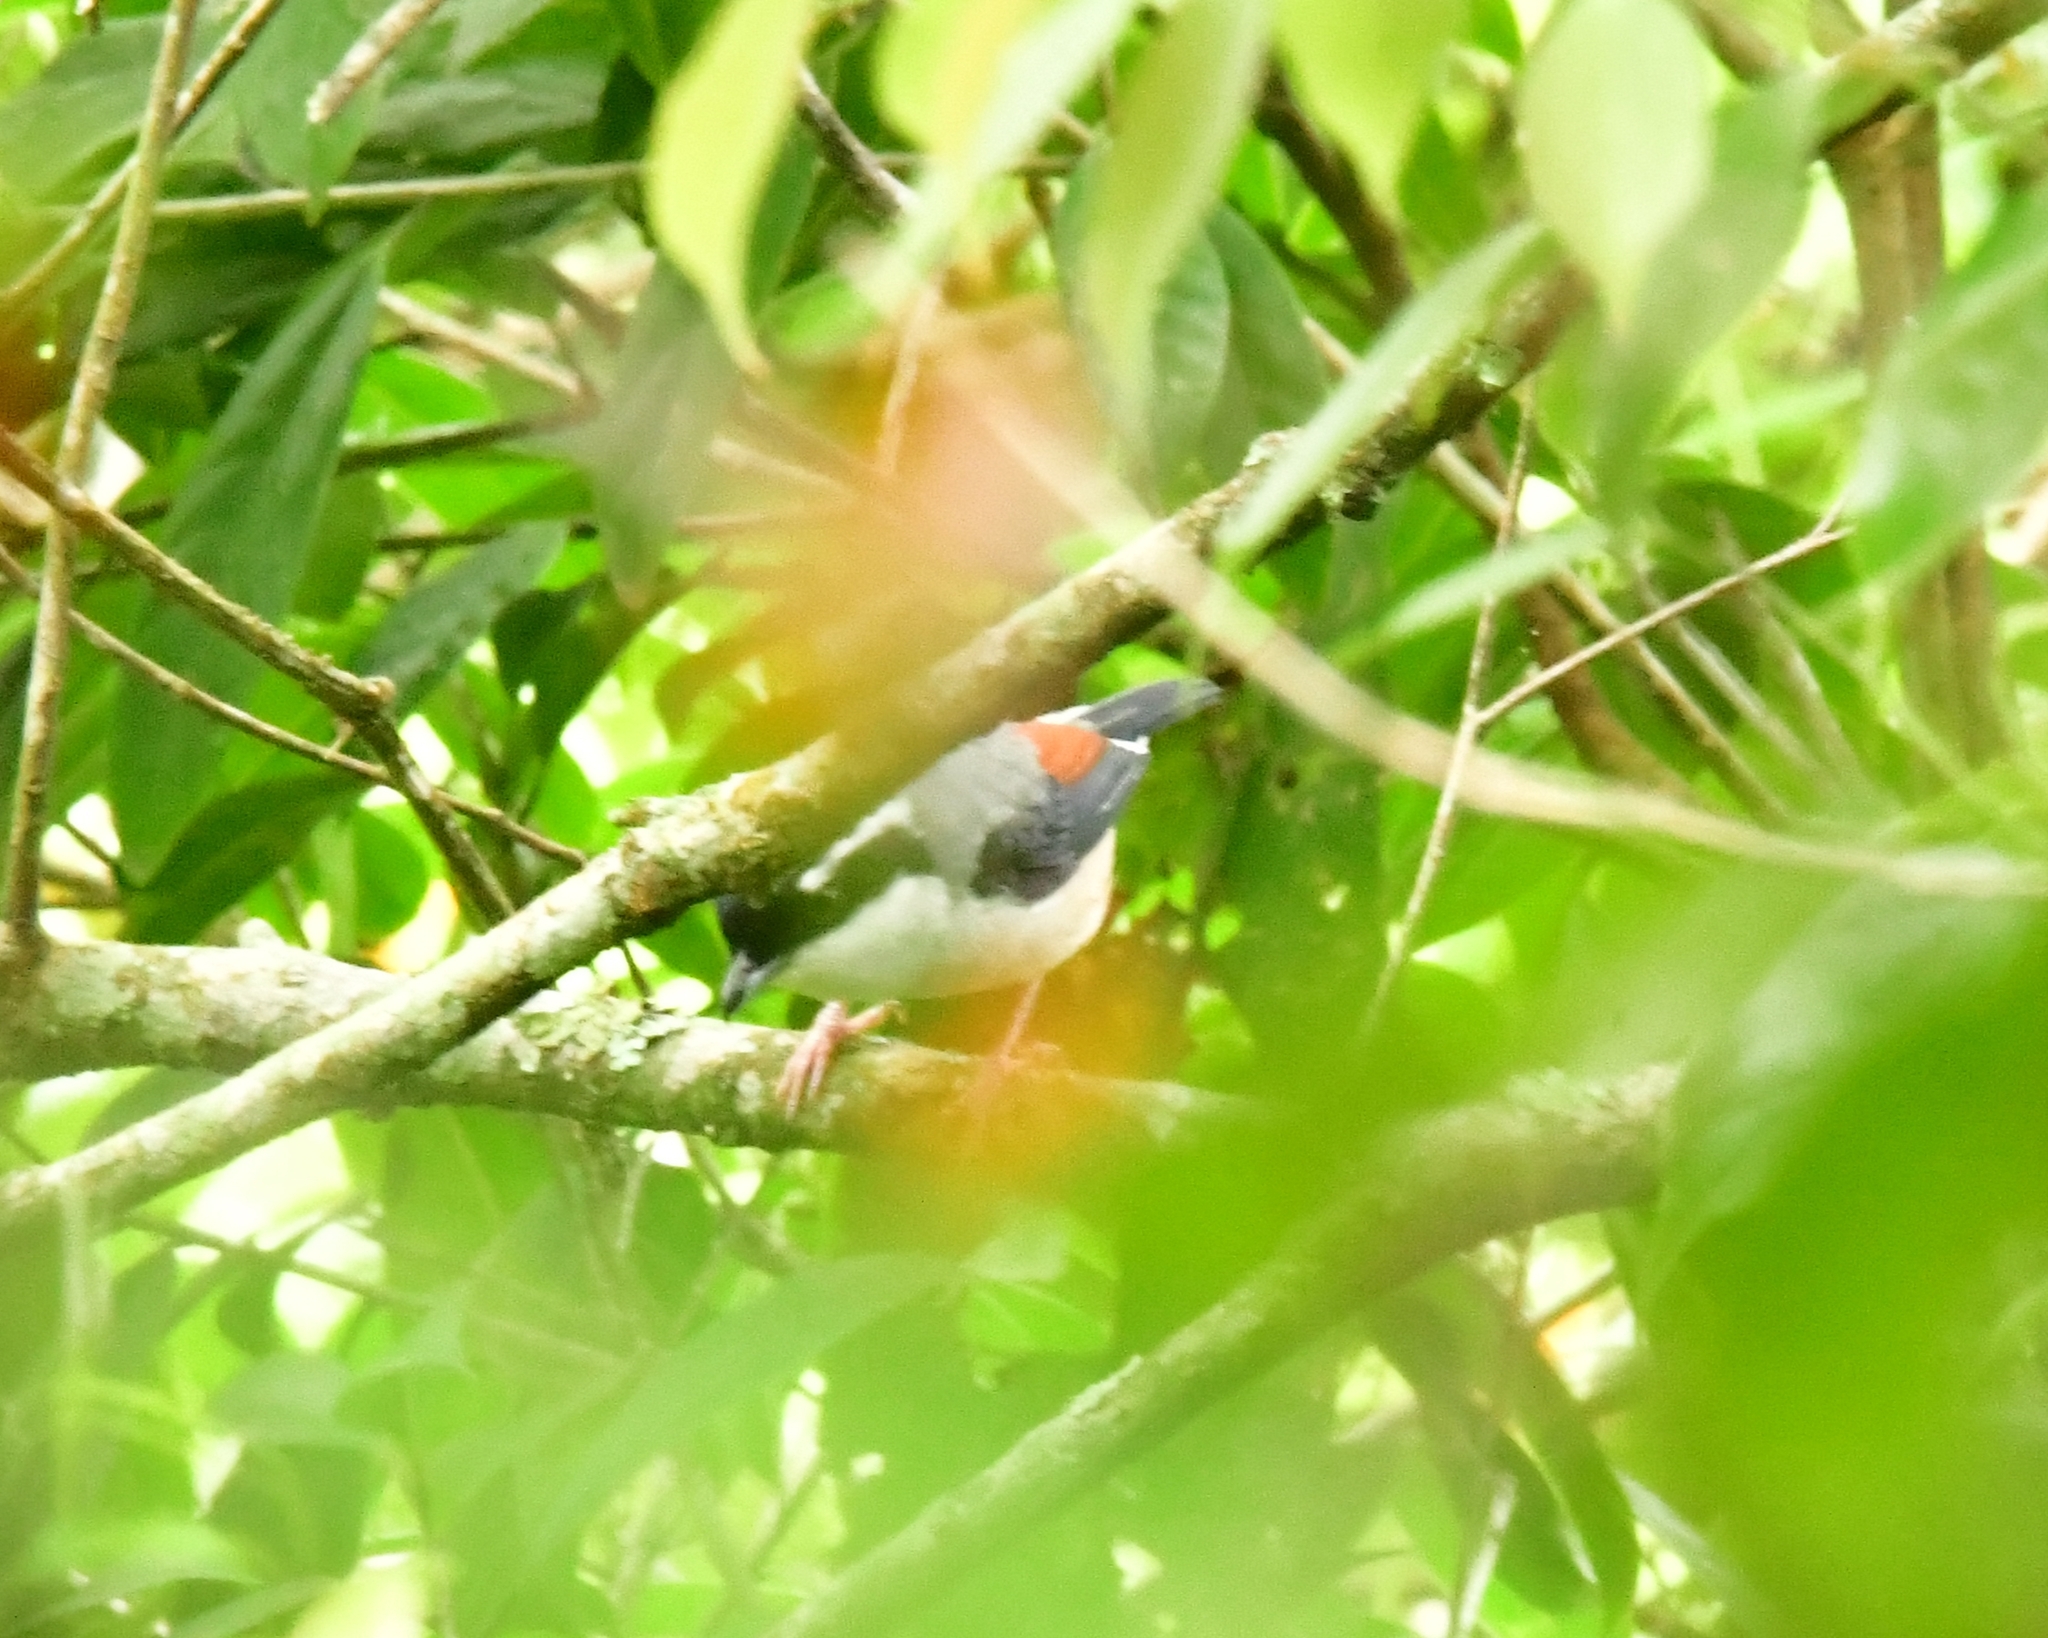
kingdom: Animalia
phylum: Chordata
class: Aves
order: Passeriformes
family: Vireonidae
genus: Pteruthius
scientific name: Pteruthius aeralatus
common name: Blyth's shrike-babbler
